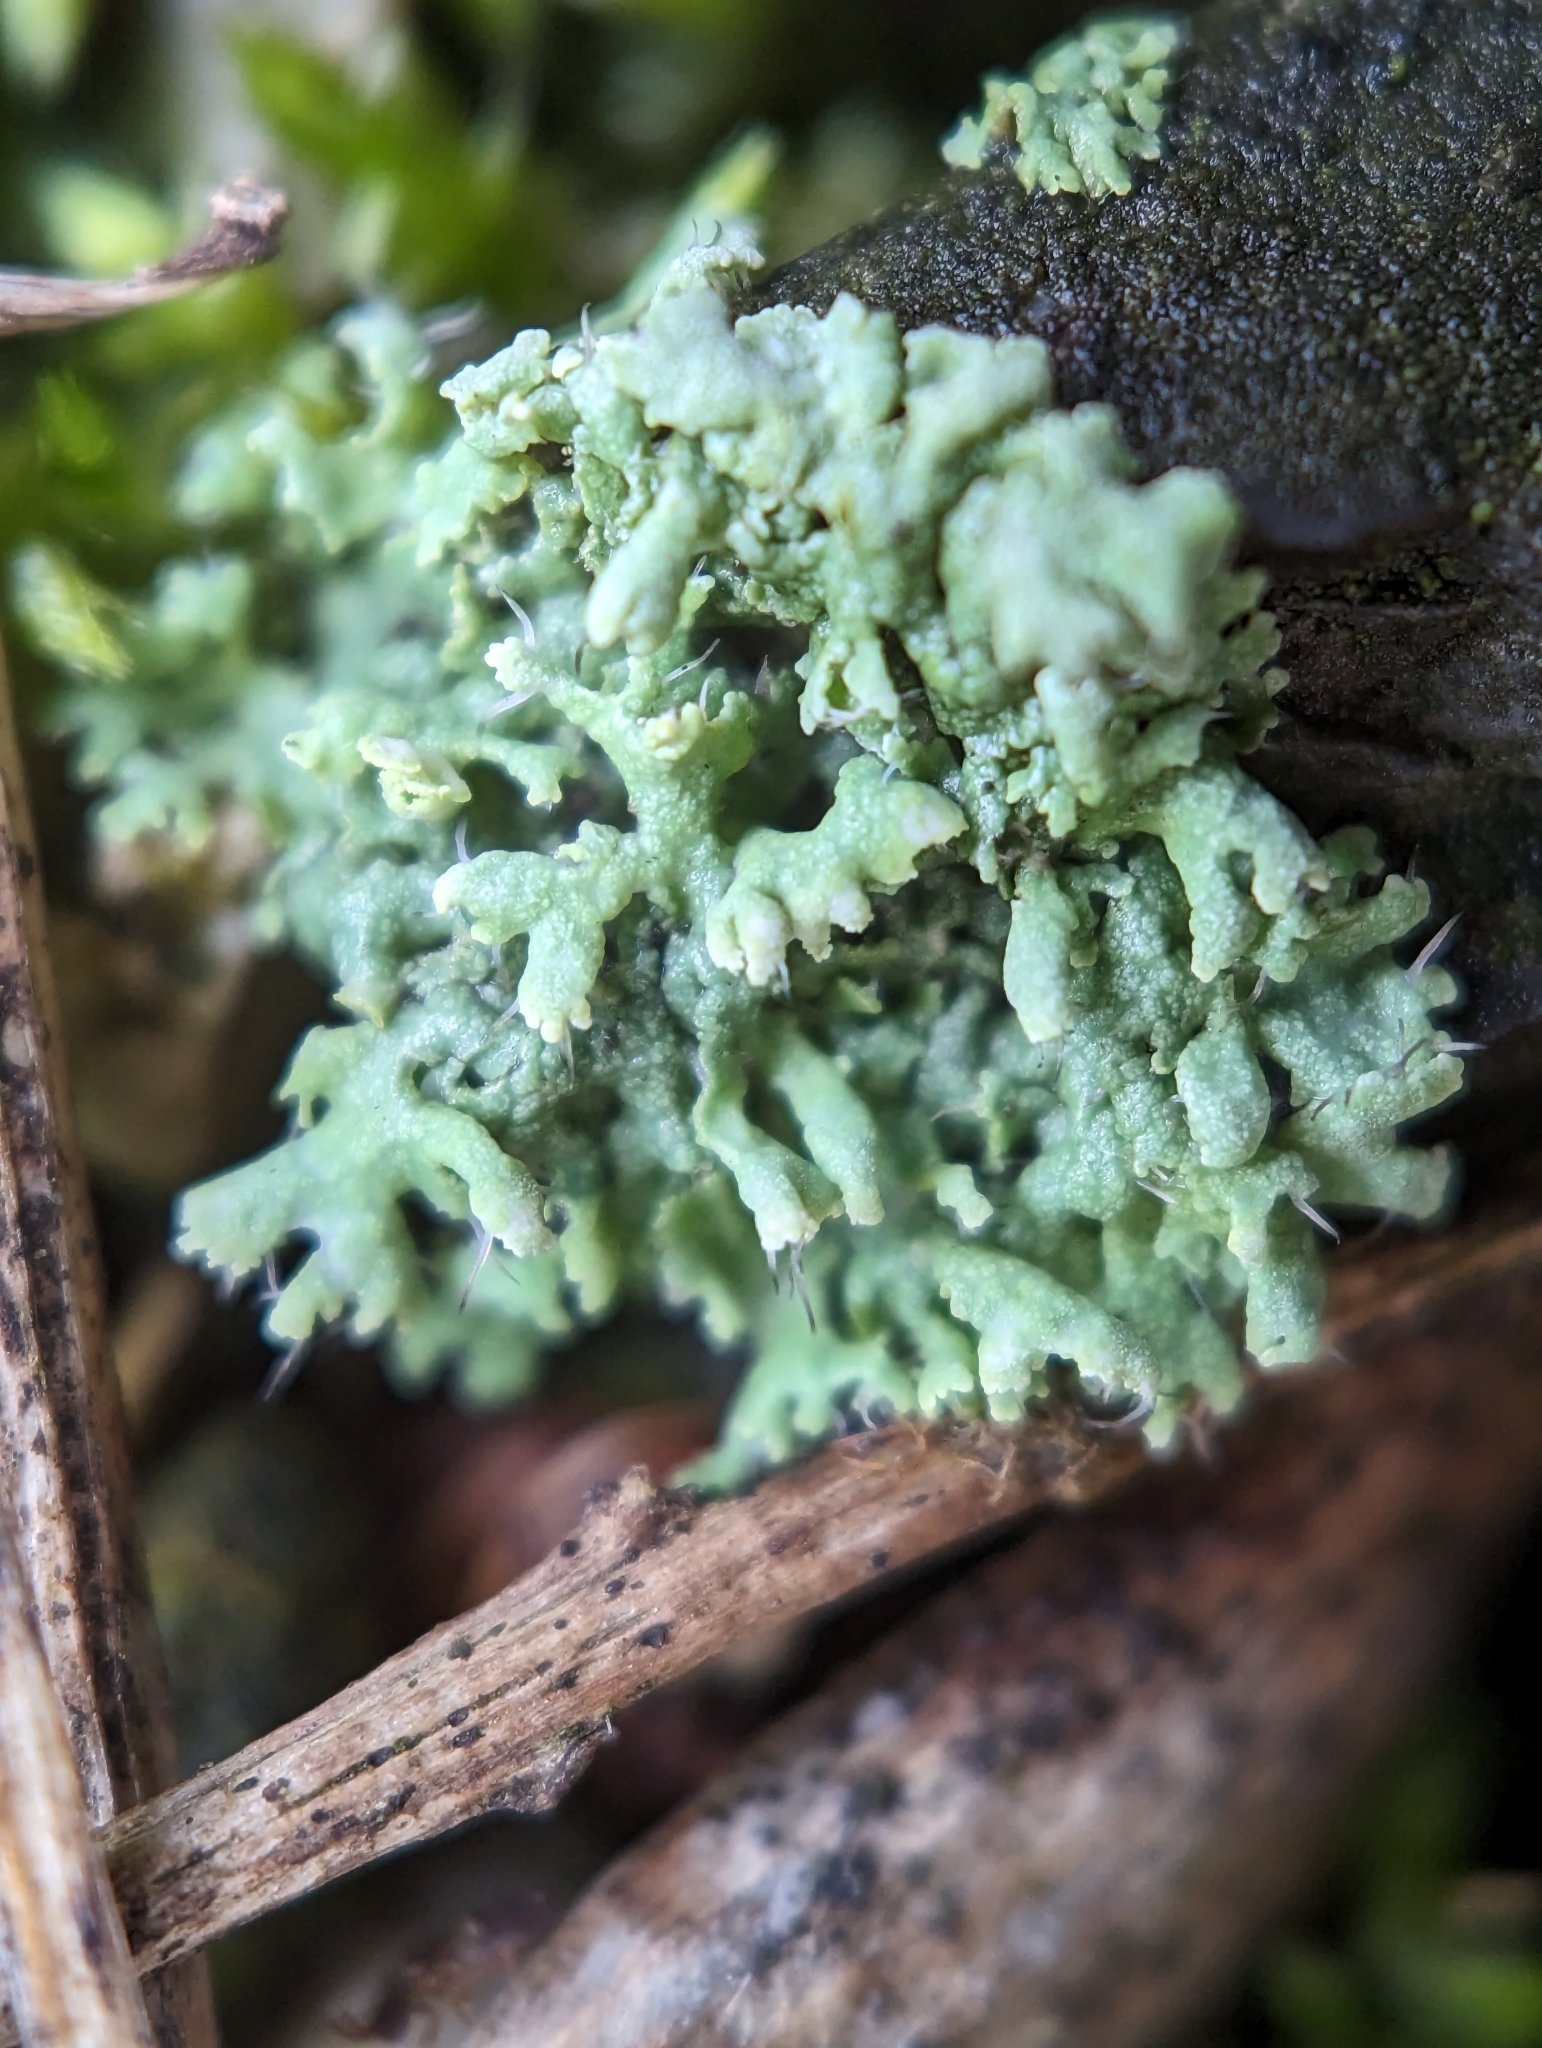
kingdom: Fungi
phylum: Ascomycota
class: Lecanoromycetes
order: Caliciales
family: Physciaceae
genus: Physcia
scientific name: Physcia adscendens
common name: Hooded rosette lichen
